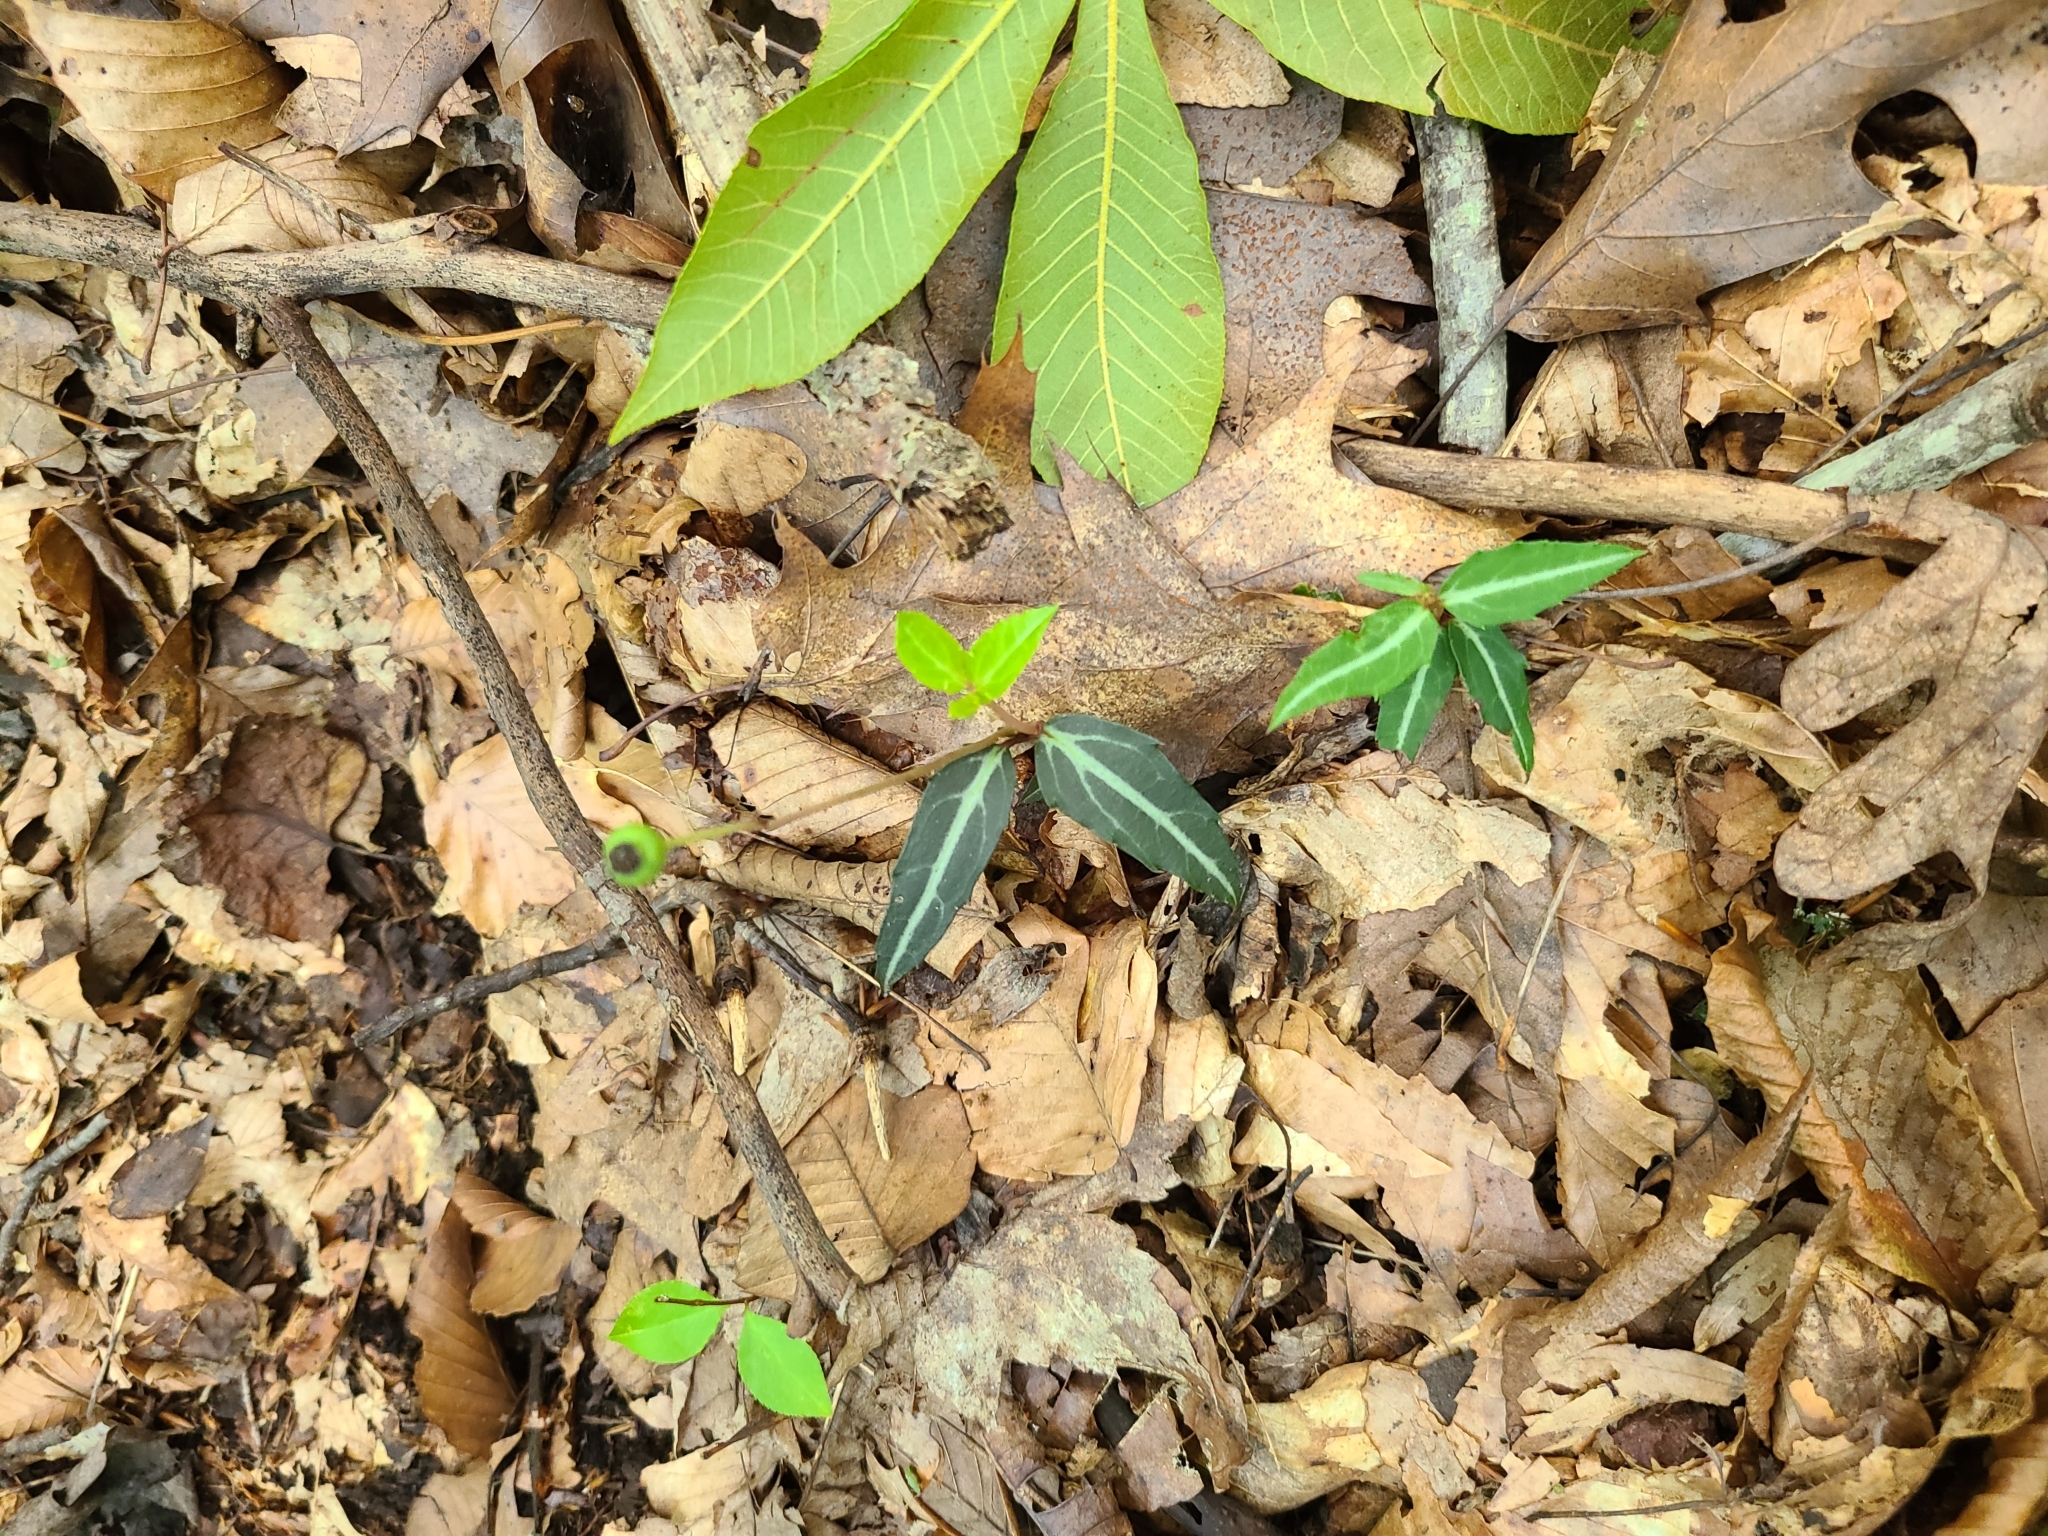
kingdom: Plantae
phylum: Tracheophyta
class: Magnoliopsida
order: Ericales
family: Ericaceae
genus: Chimaphila
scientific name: Chimaphila maculata
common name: Spotted pipsissewa
